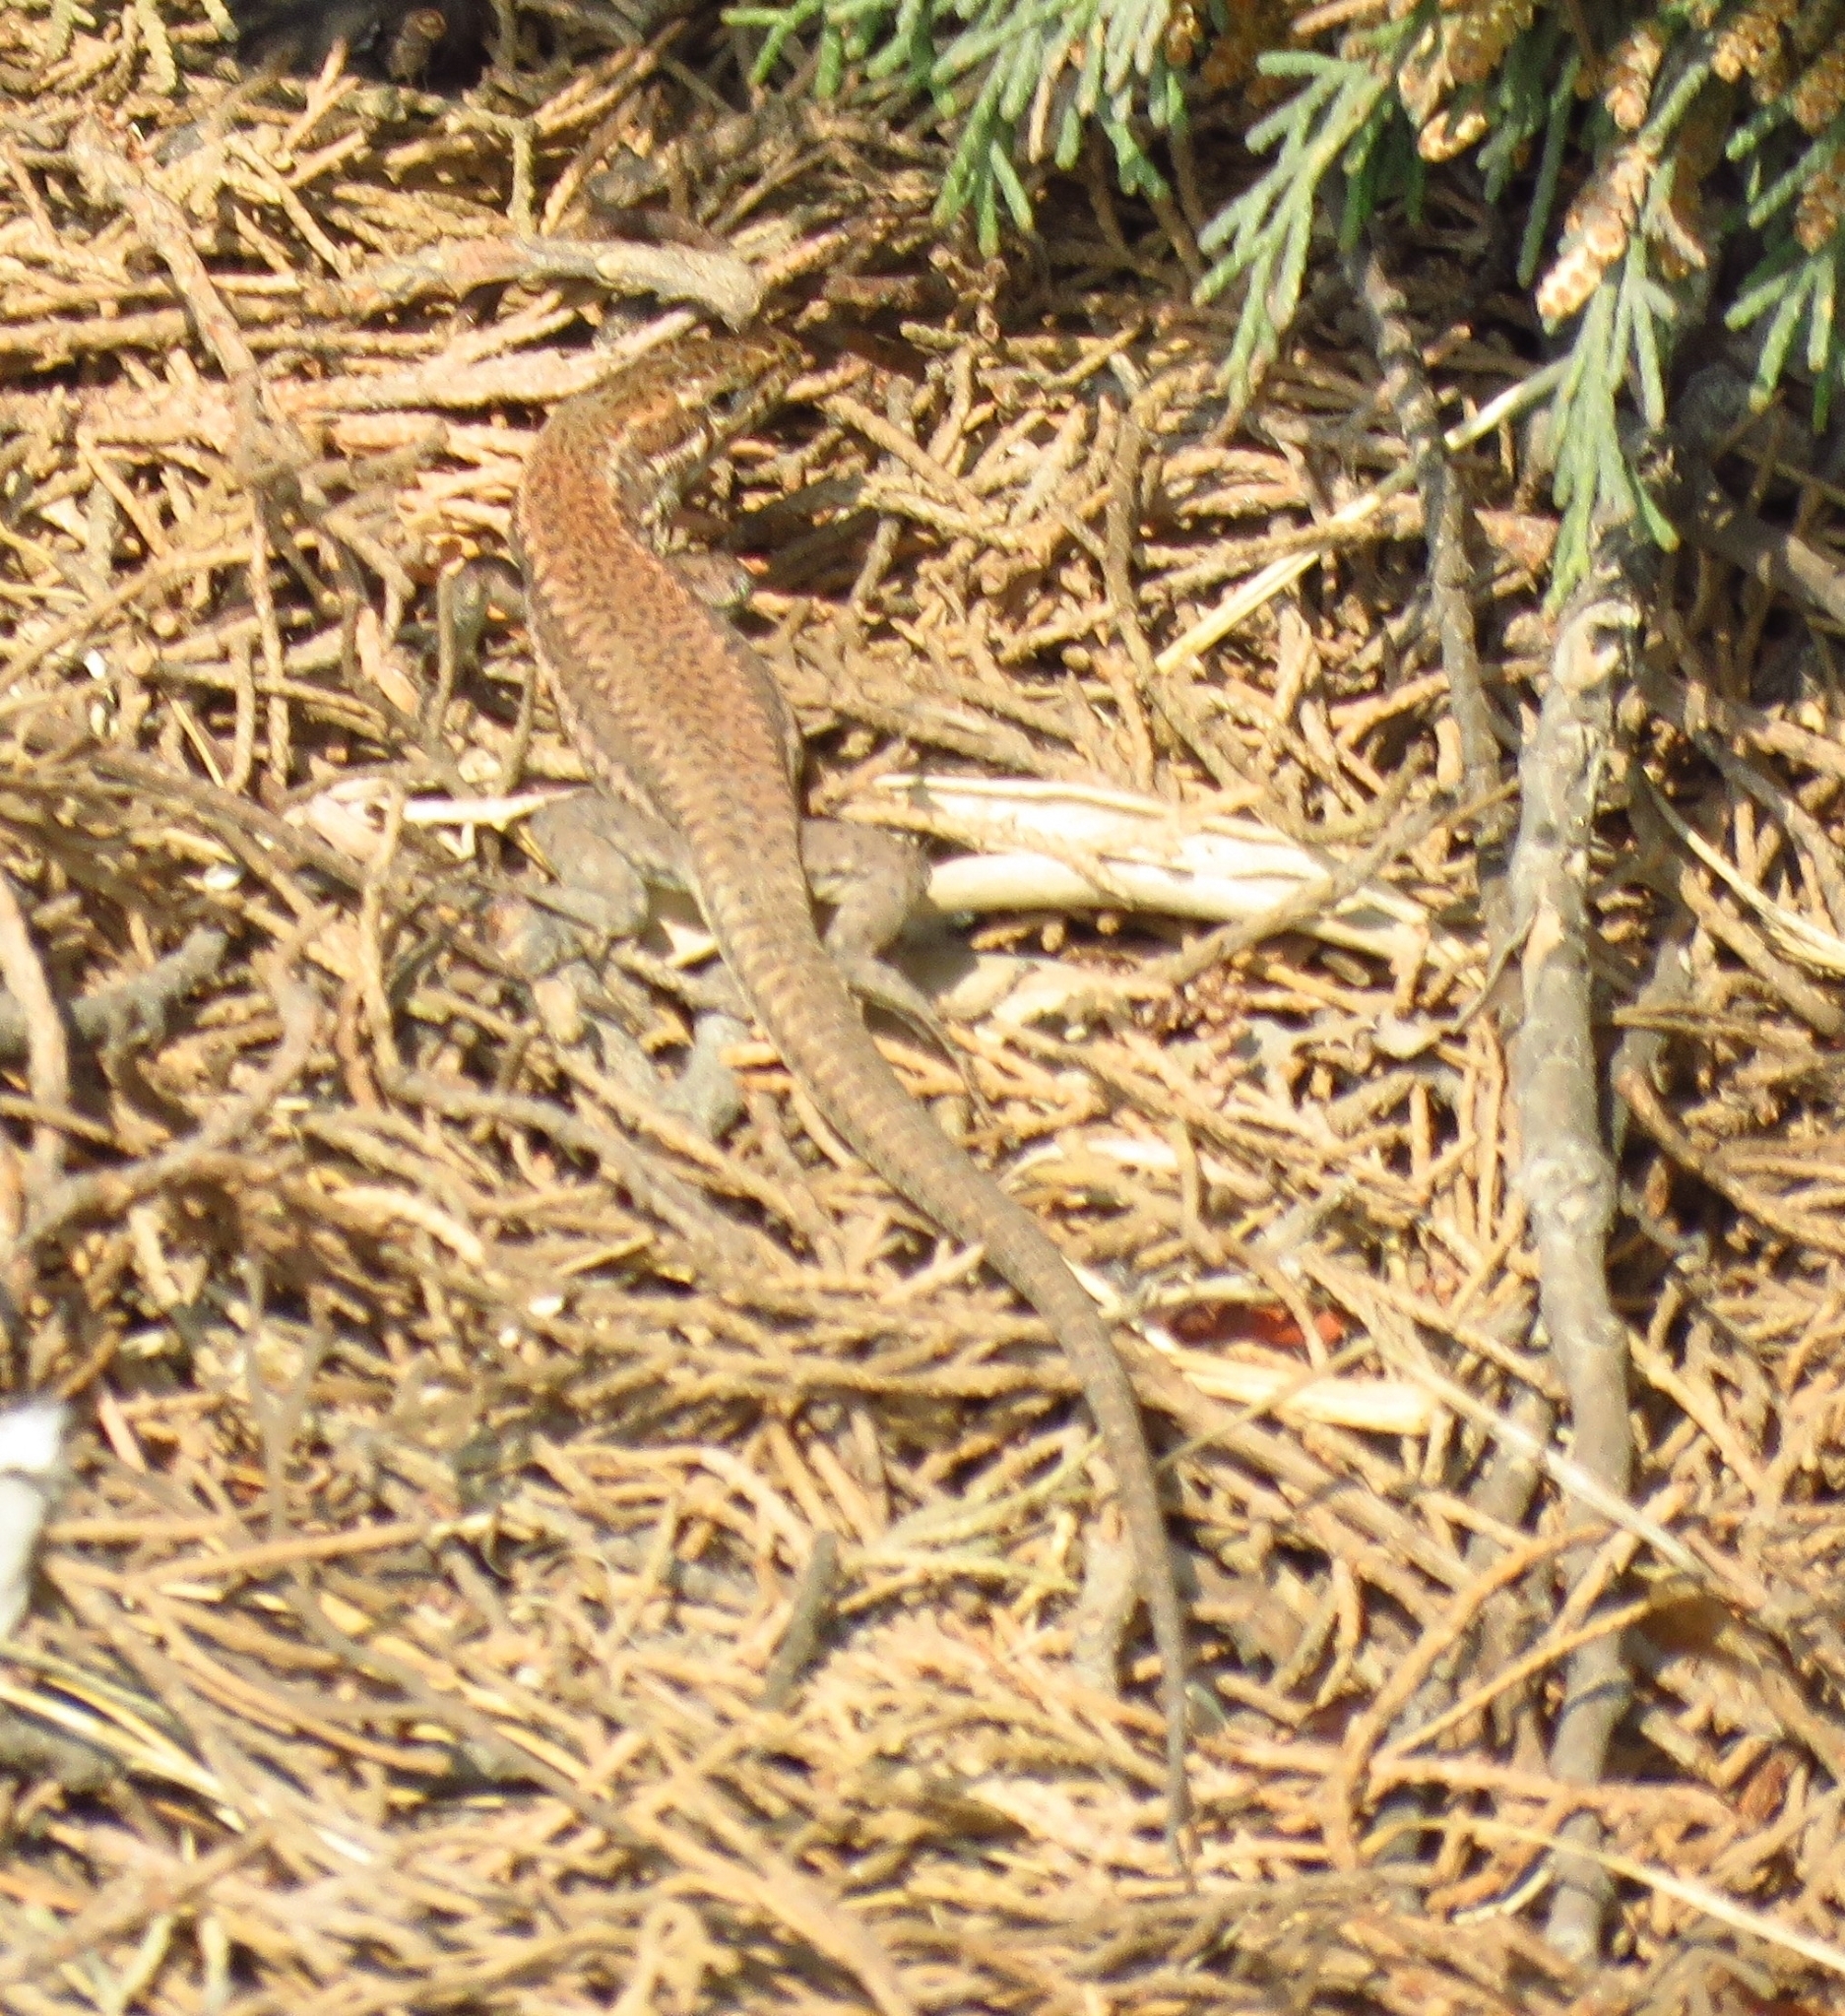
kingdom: Animalia
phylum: Chordata
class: Squamata
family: Lacertidae
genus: Podarcis
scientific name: Podarcis muralis
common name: Common wall lizard
